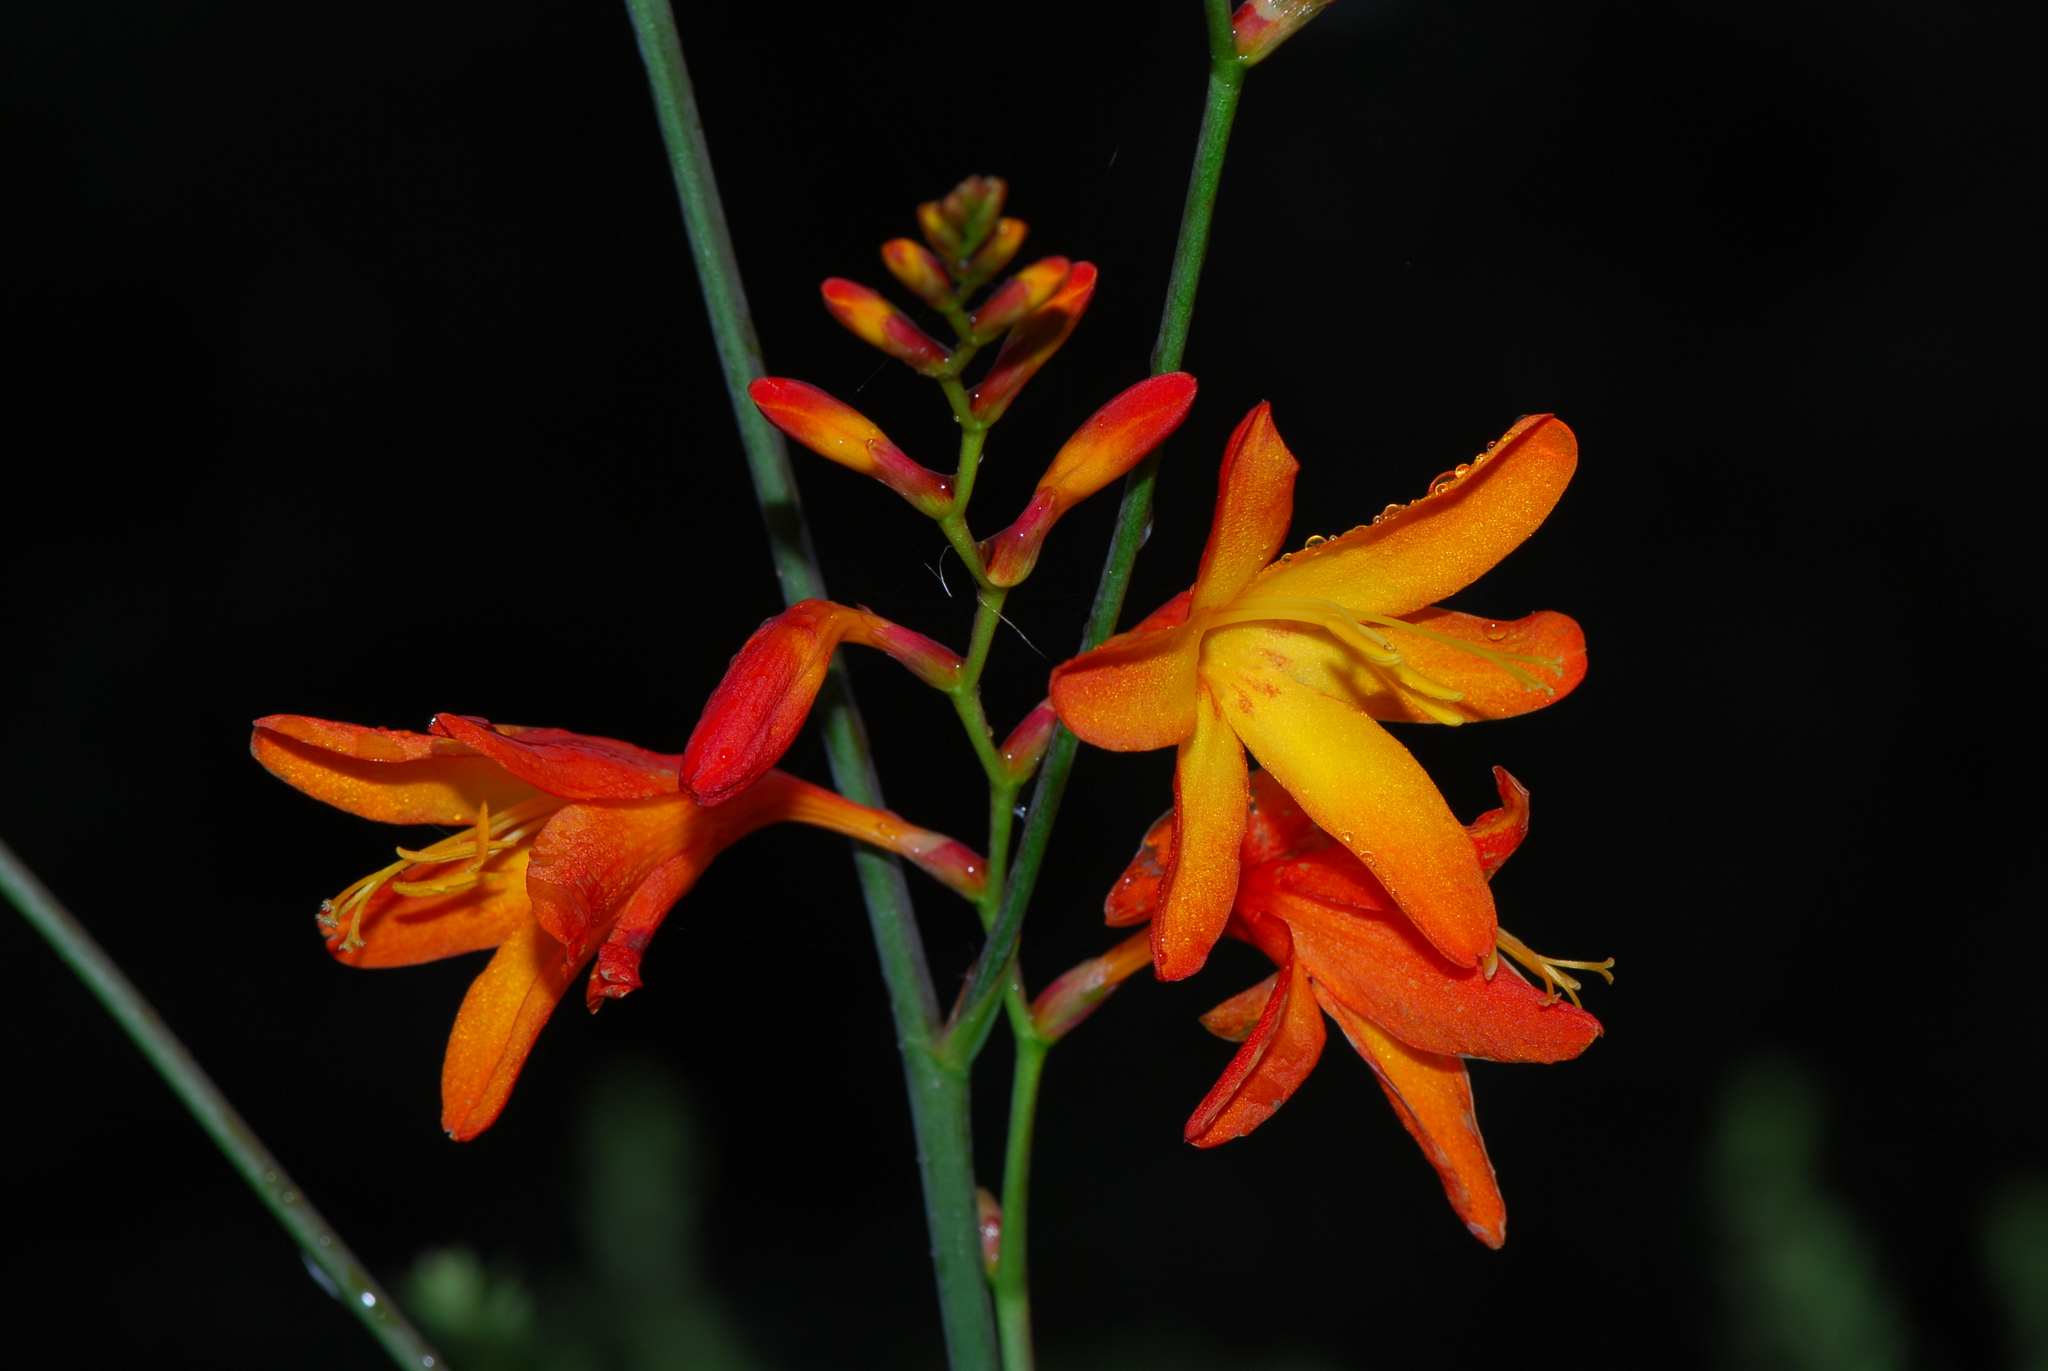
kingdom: Plantae
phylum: Tracheophyta
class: Liliopsida
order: Asparagales
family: Iridaceae
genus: Crocosmia
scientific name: Crocosmia crocosmiiflora
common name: Montbretia
